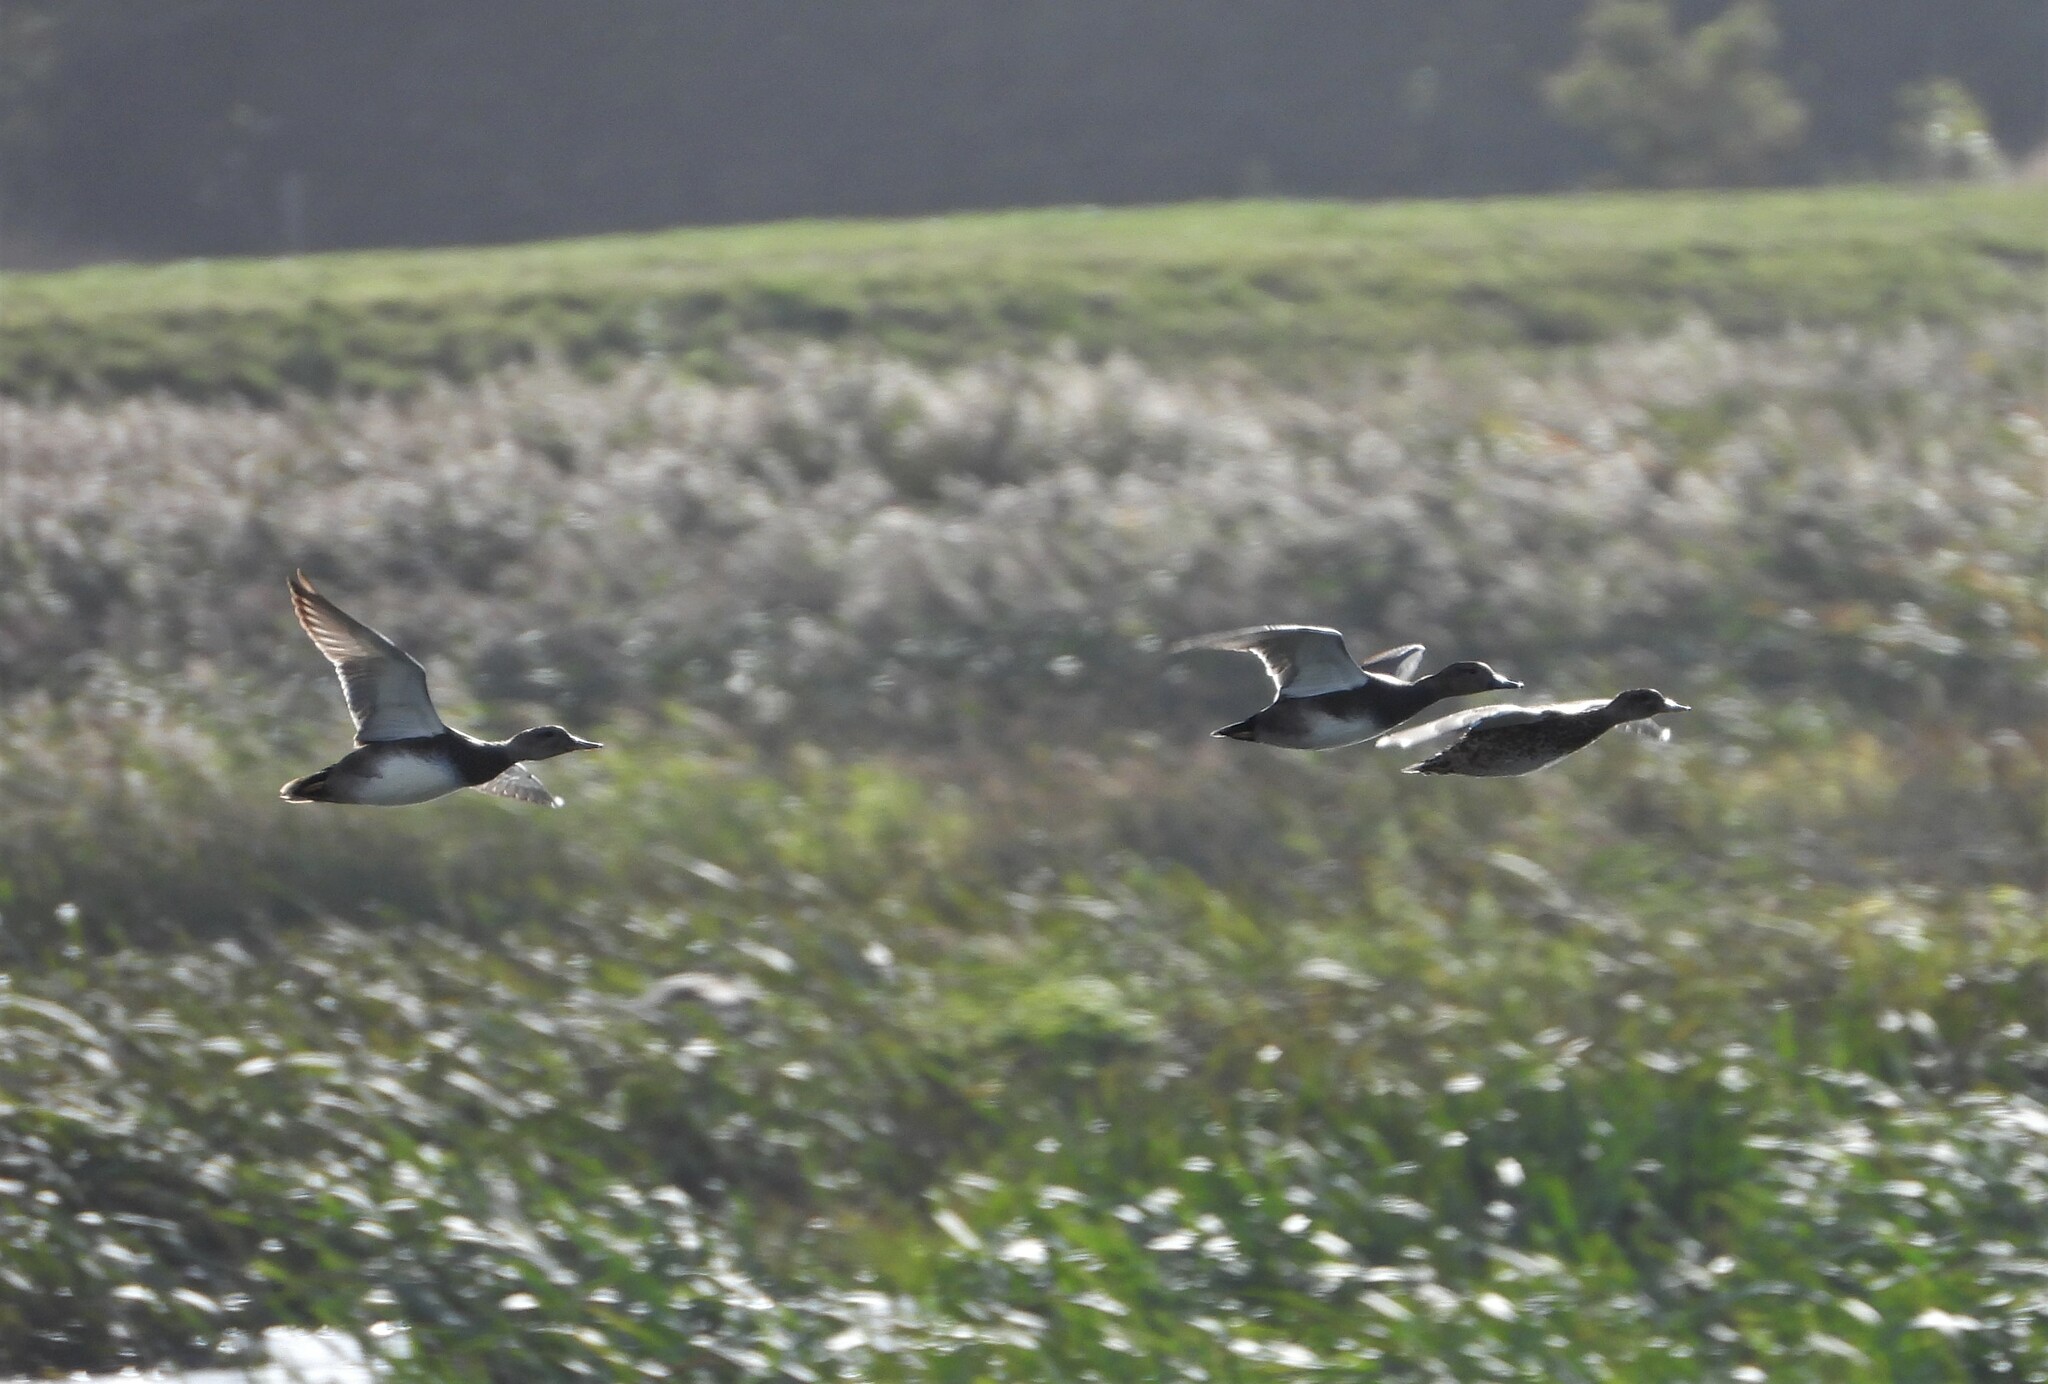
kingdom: Animalia
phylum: Chordata
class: Aves
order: Anseriformes
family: Anatidae
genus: Mareca
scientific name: Mareca strepera
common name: Gadwall
